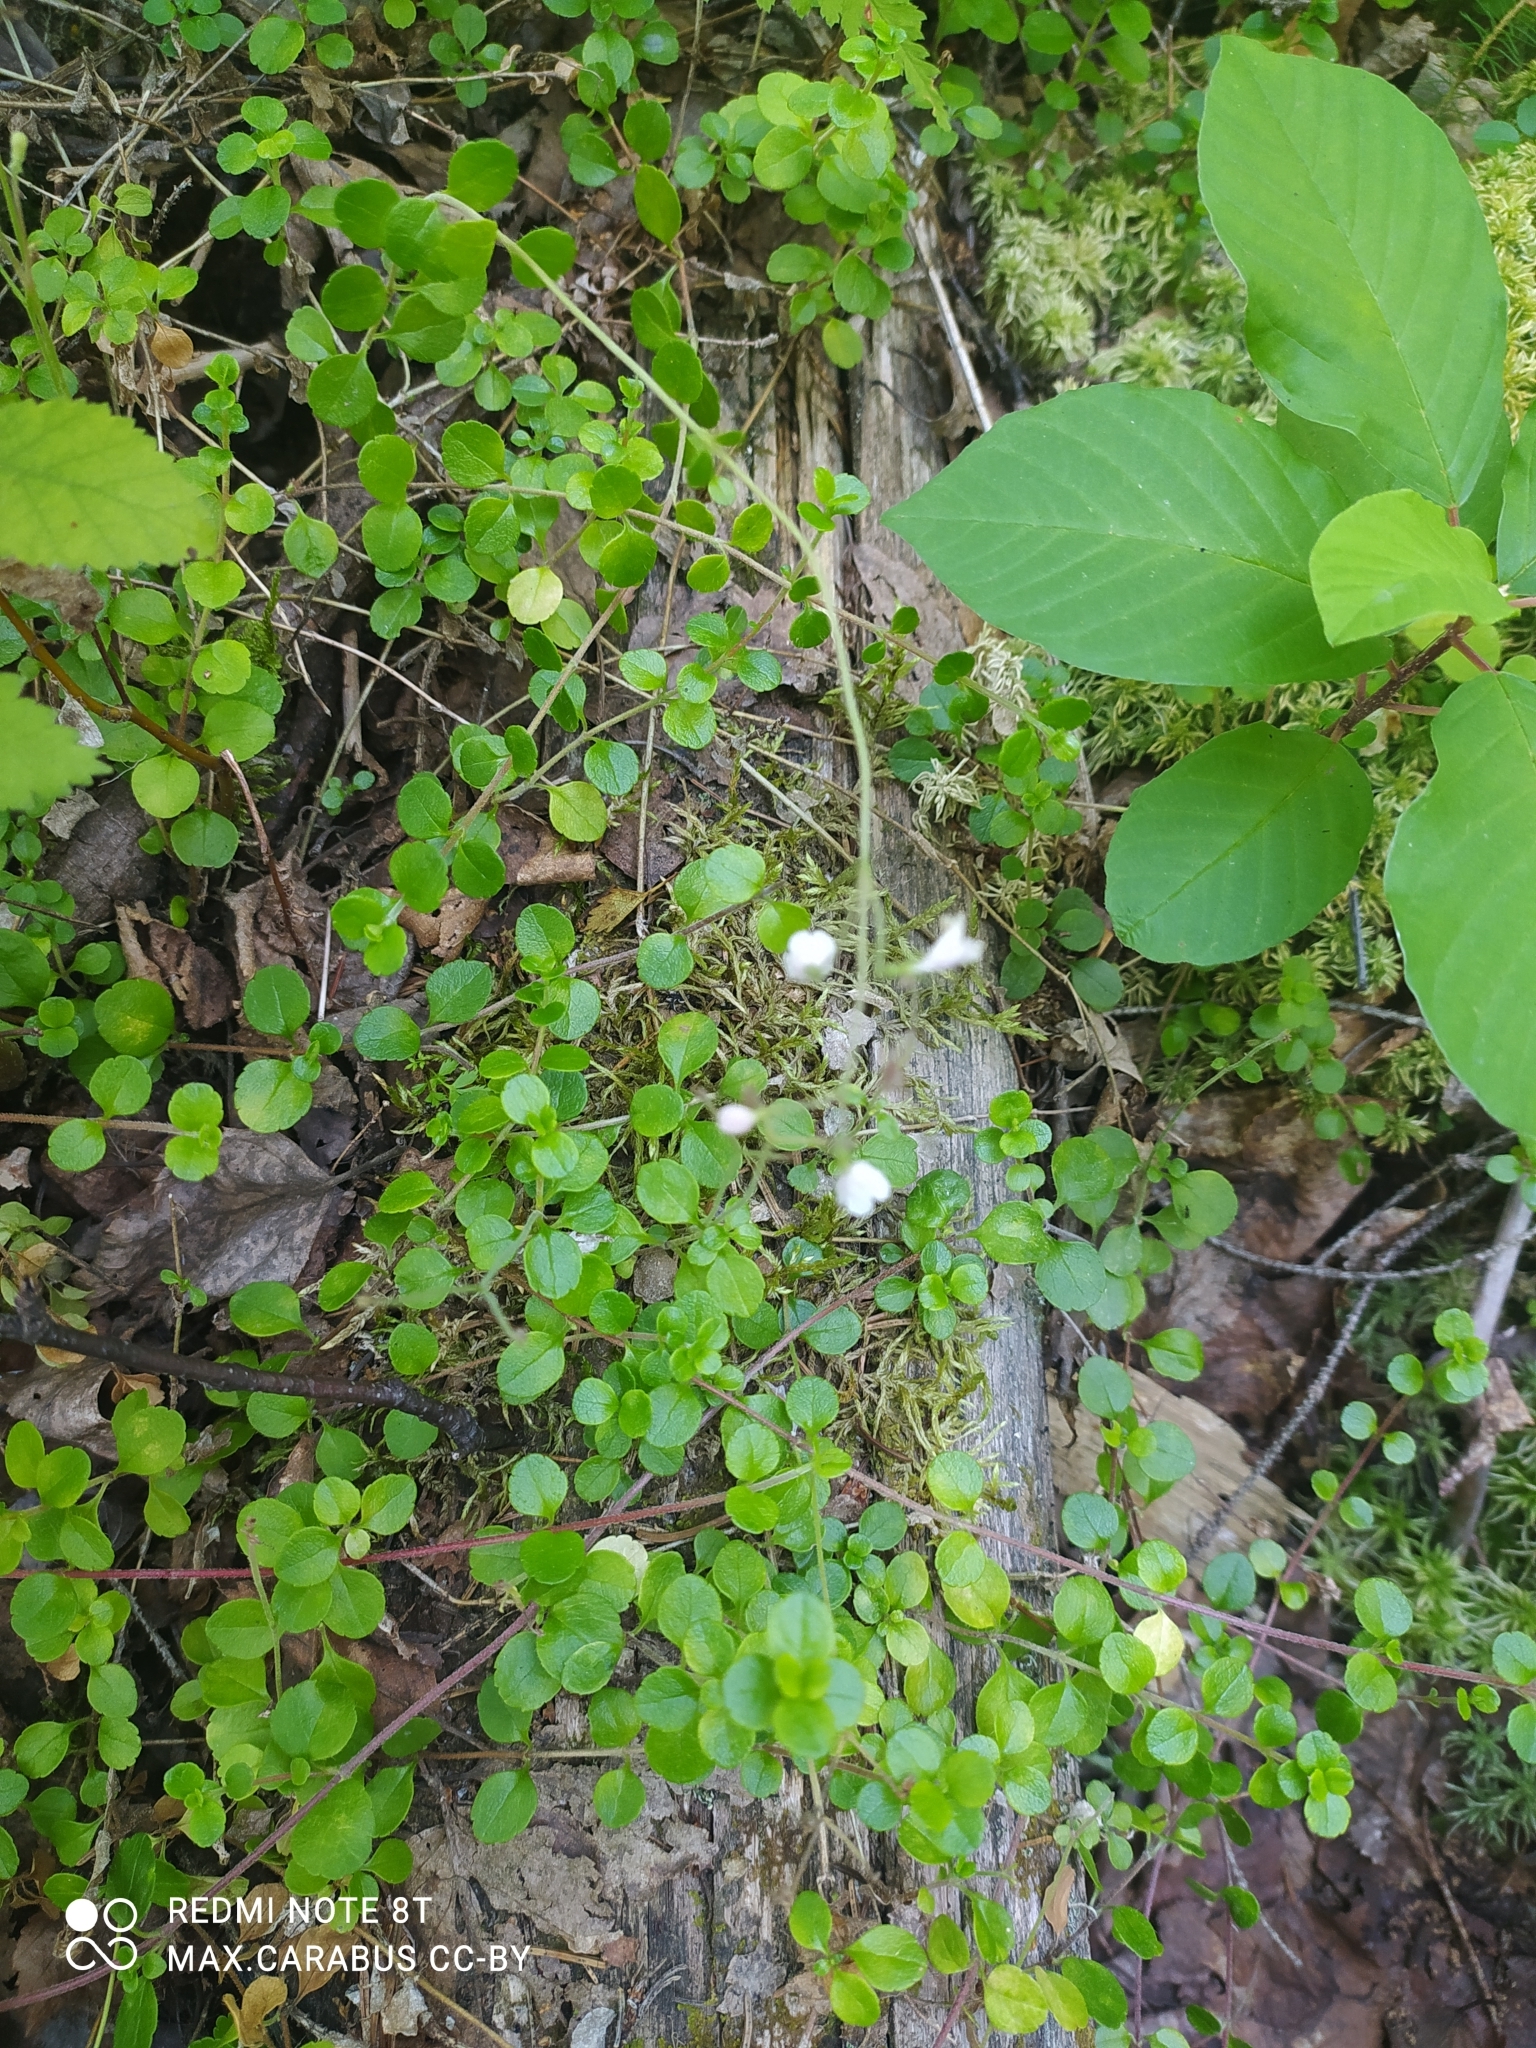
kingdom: Plantae
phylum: Tracheophyta
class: Magnoliopsida
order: Dipsacales
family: Caprifoliaceae
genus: Linnaea
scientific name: Linnaea borealis
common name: Twinflower
